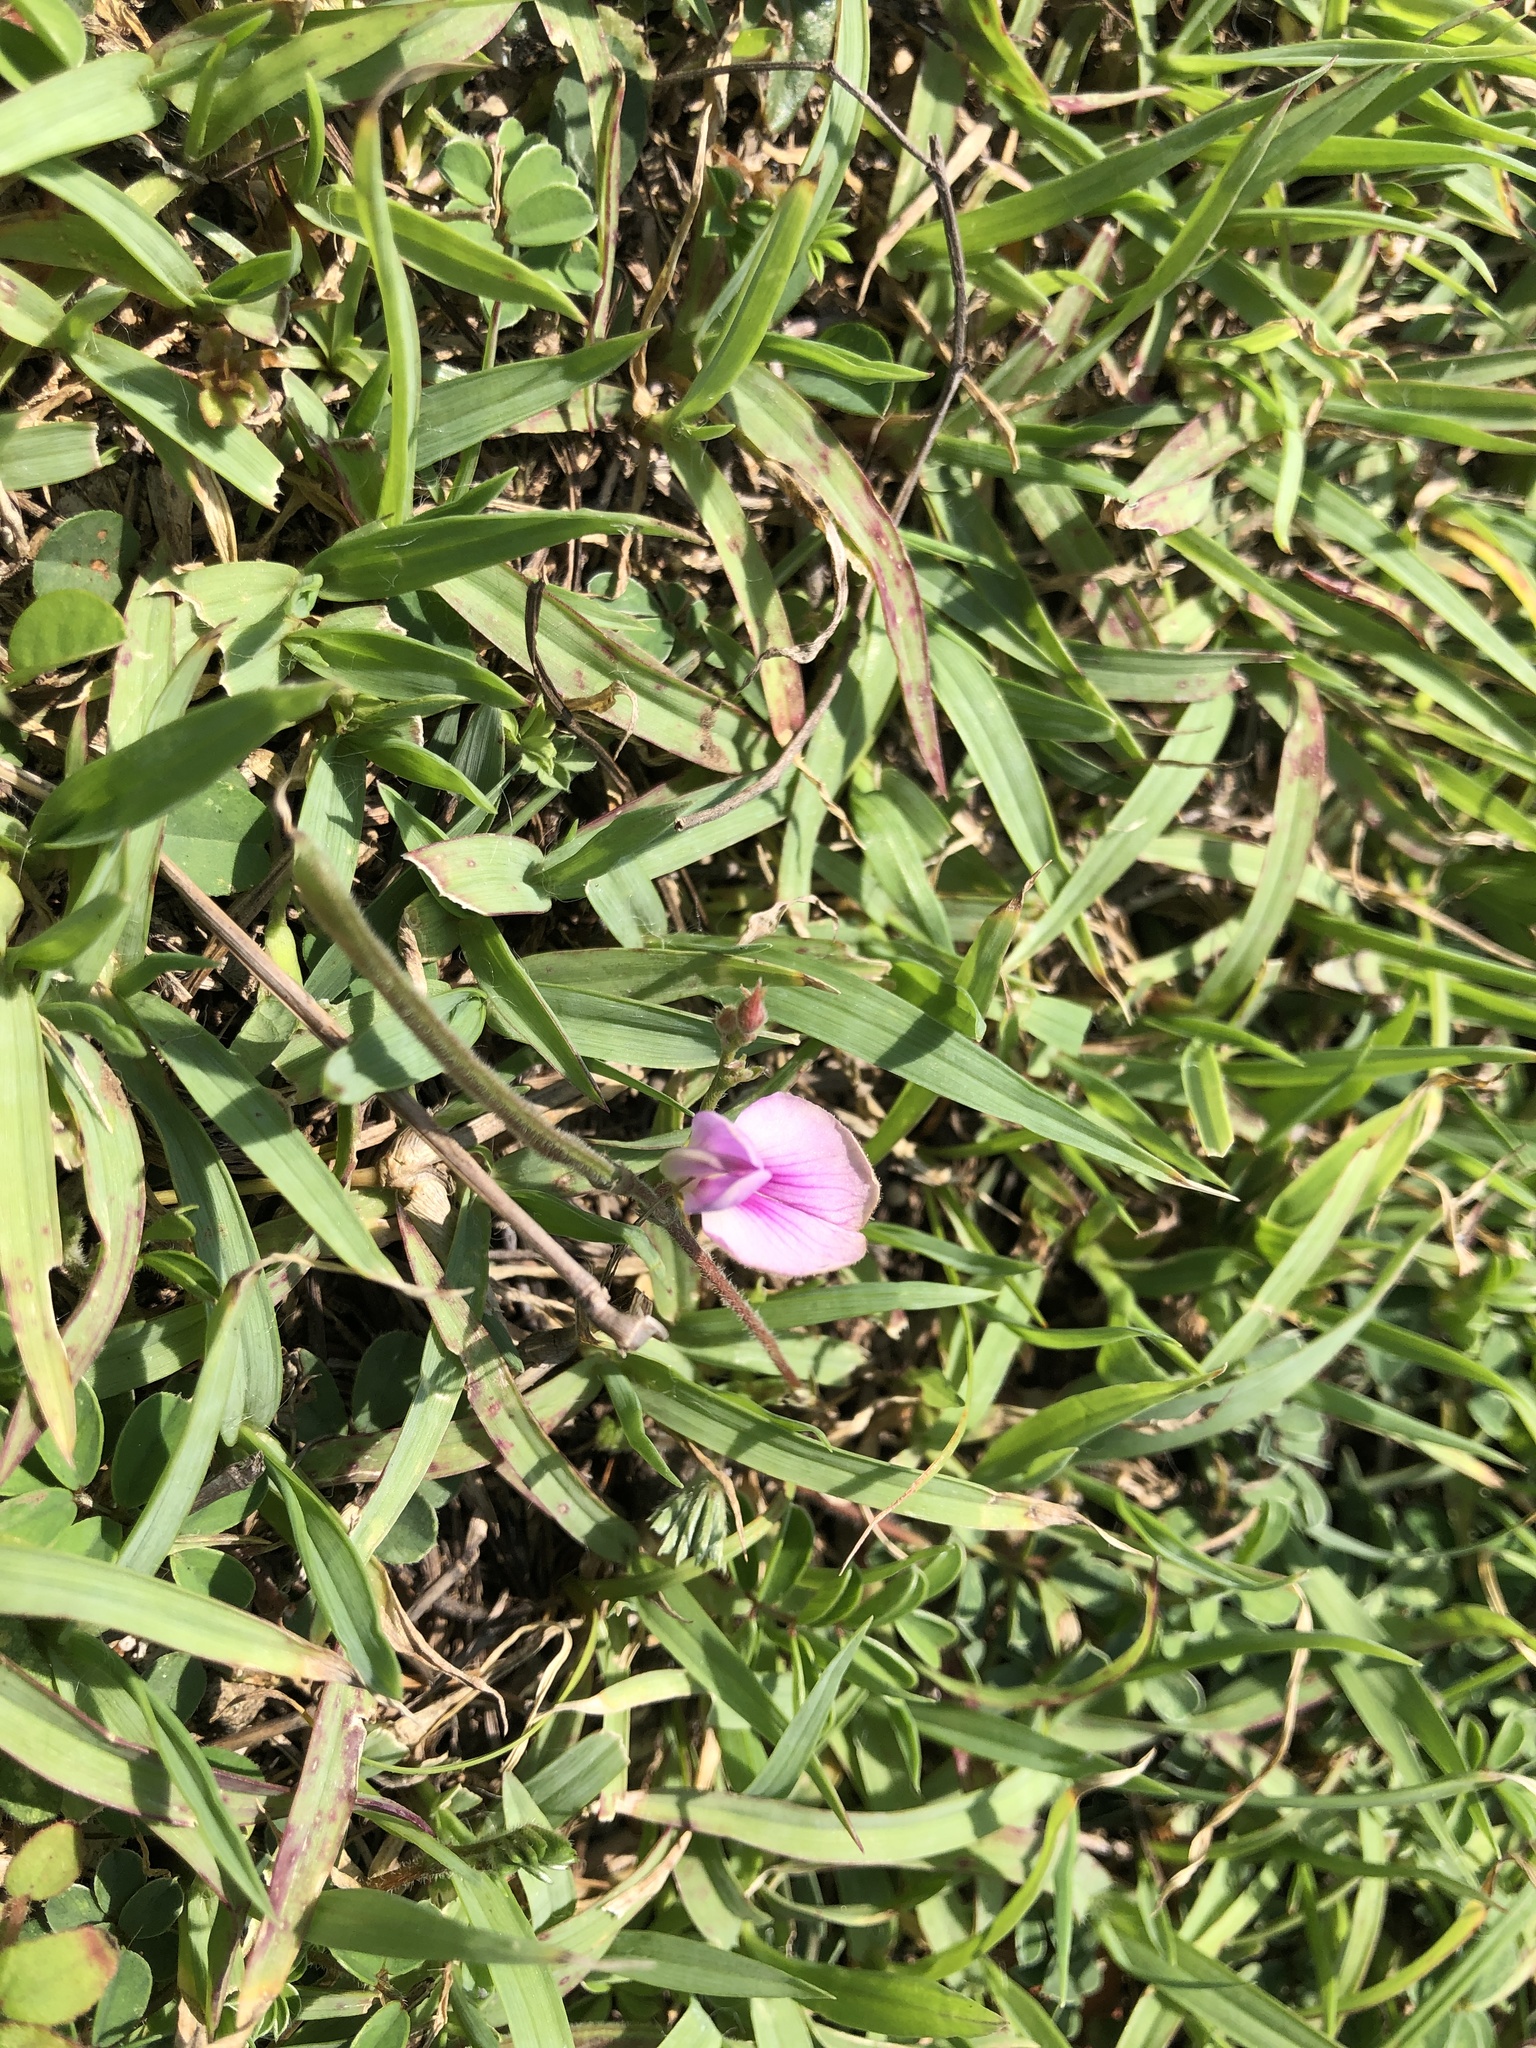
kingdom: Plantae
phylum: Tracheophyta
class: Magnoliopsida
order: Fabales
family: Fabaceae
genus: Tephrosia
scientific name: Tephrosia obovata
